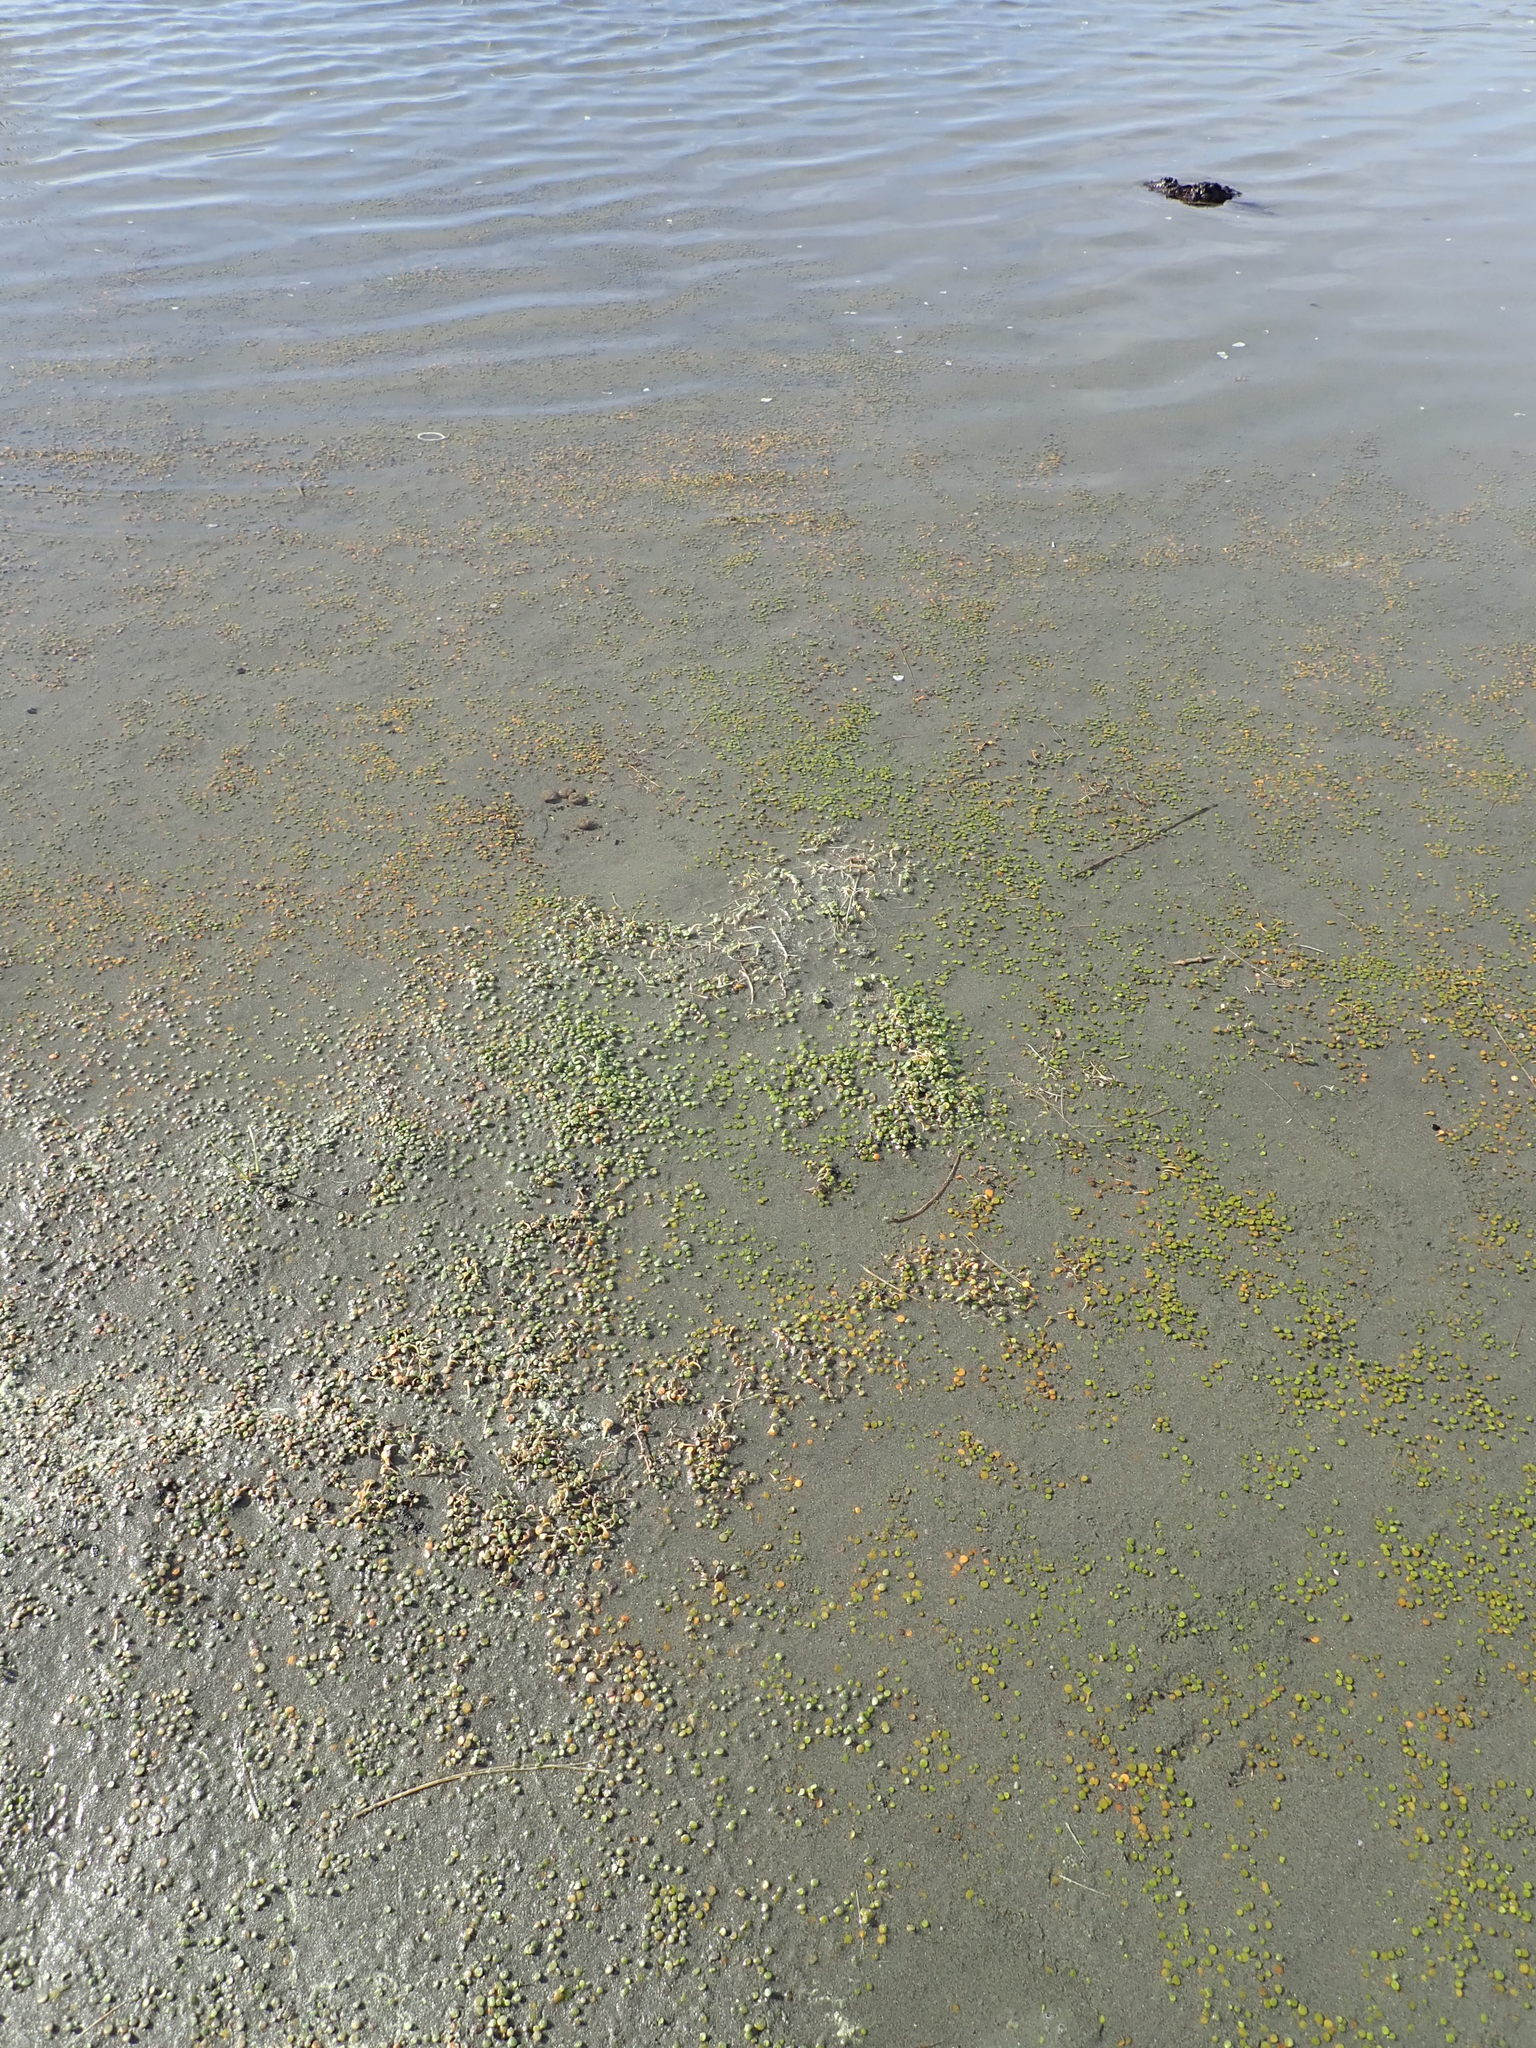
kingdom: Plantae
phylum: Tracheophyta
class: Magnoliopsida
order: Asterales
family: Goodeniaceae
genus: Goodenia
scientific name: Goodenia heenanii
